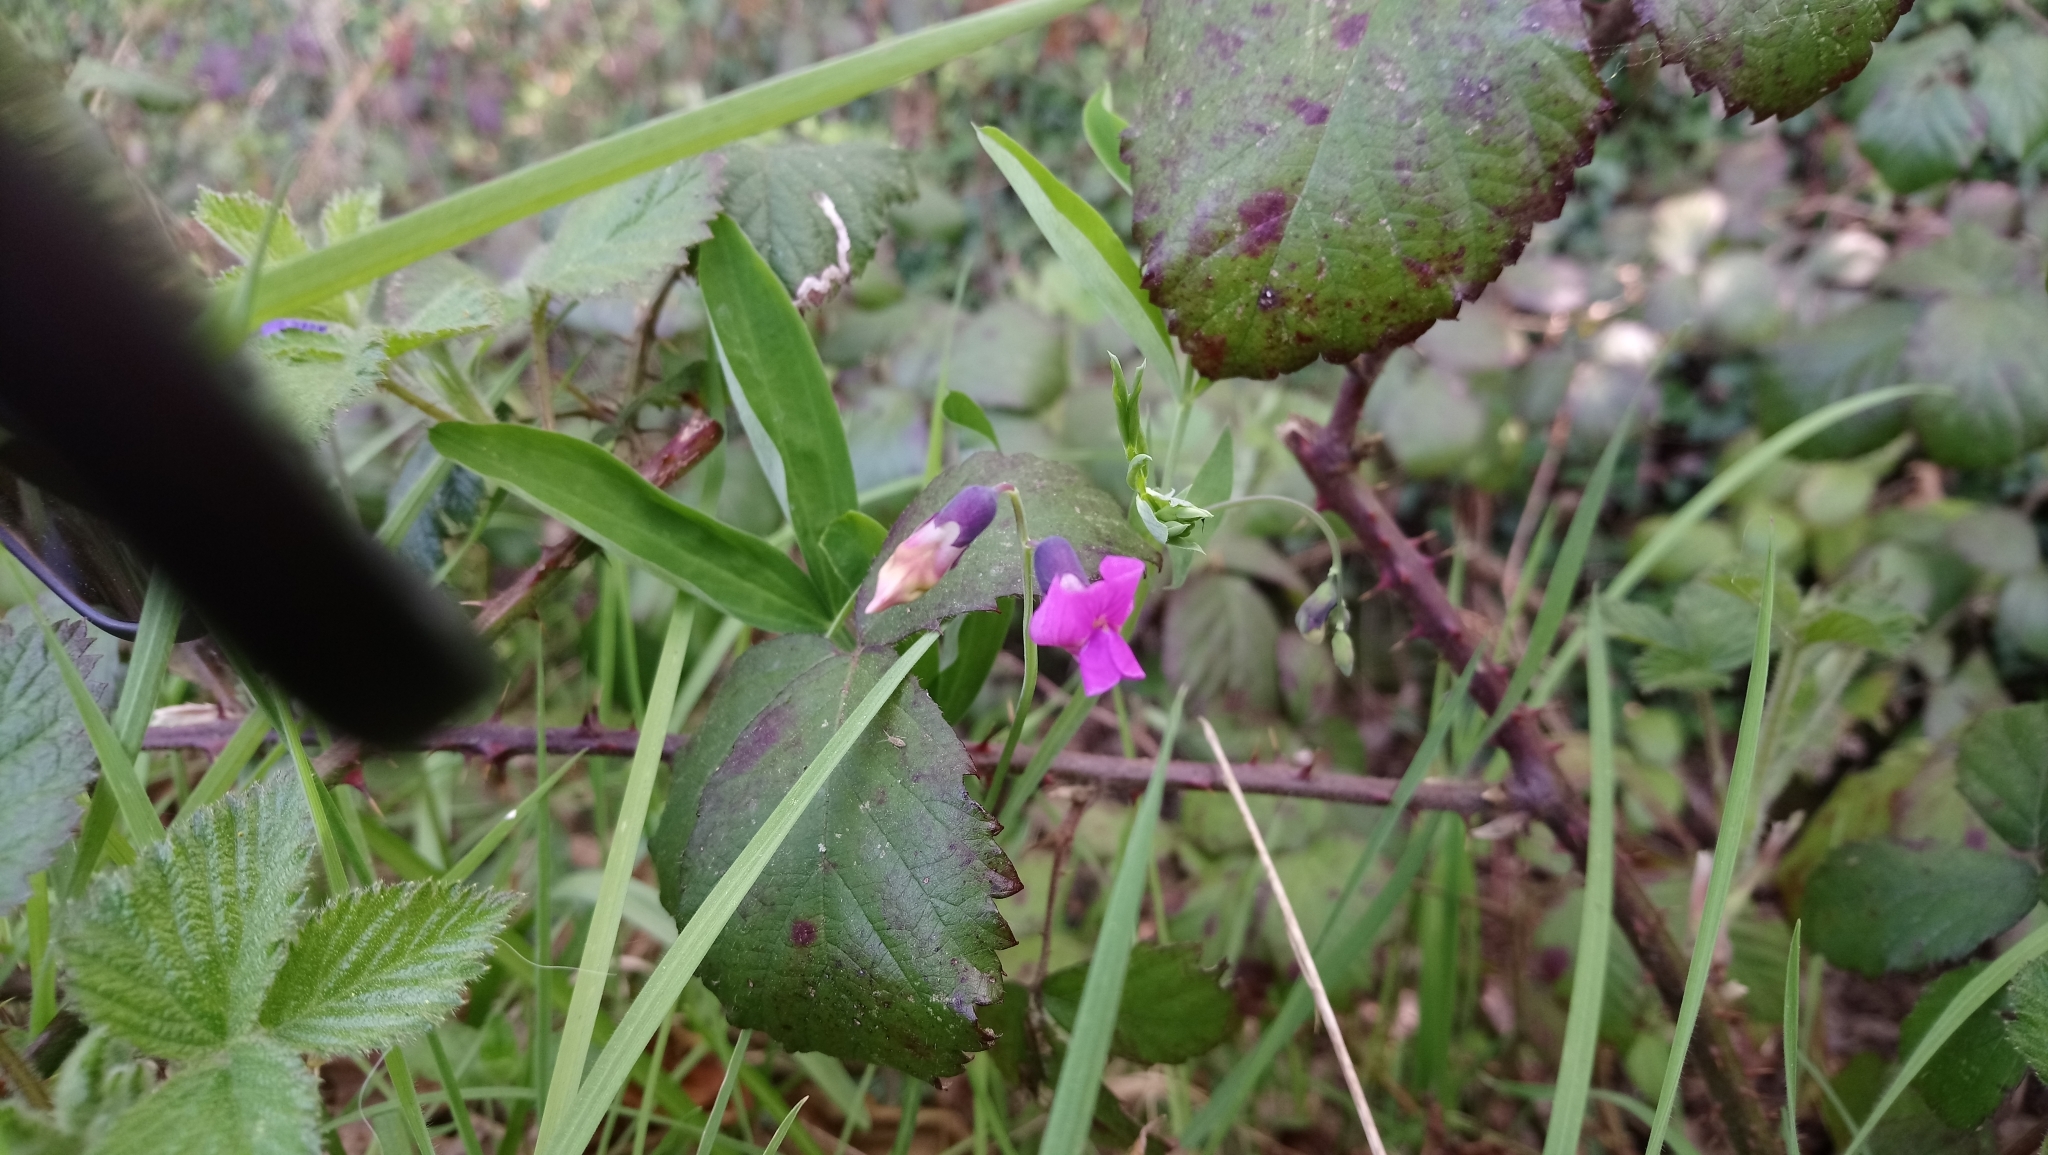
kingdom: Plantae
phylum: Tracheophyta
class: Magnoliopsida
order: Fabales
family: Fabaceae
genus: Lathyrus
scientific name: Lathyrus linifolius
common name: Bitter-vetch
